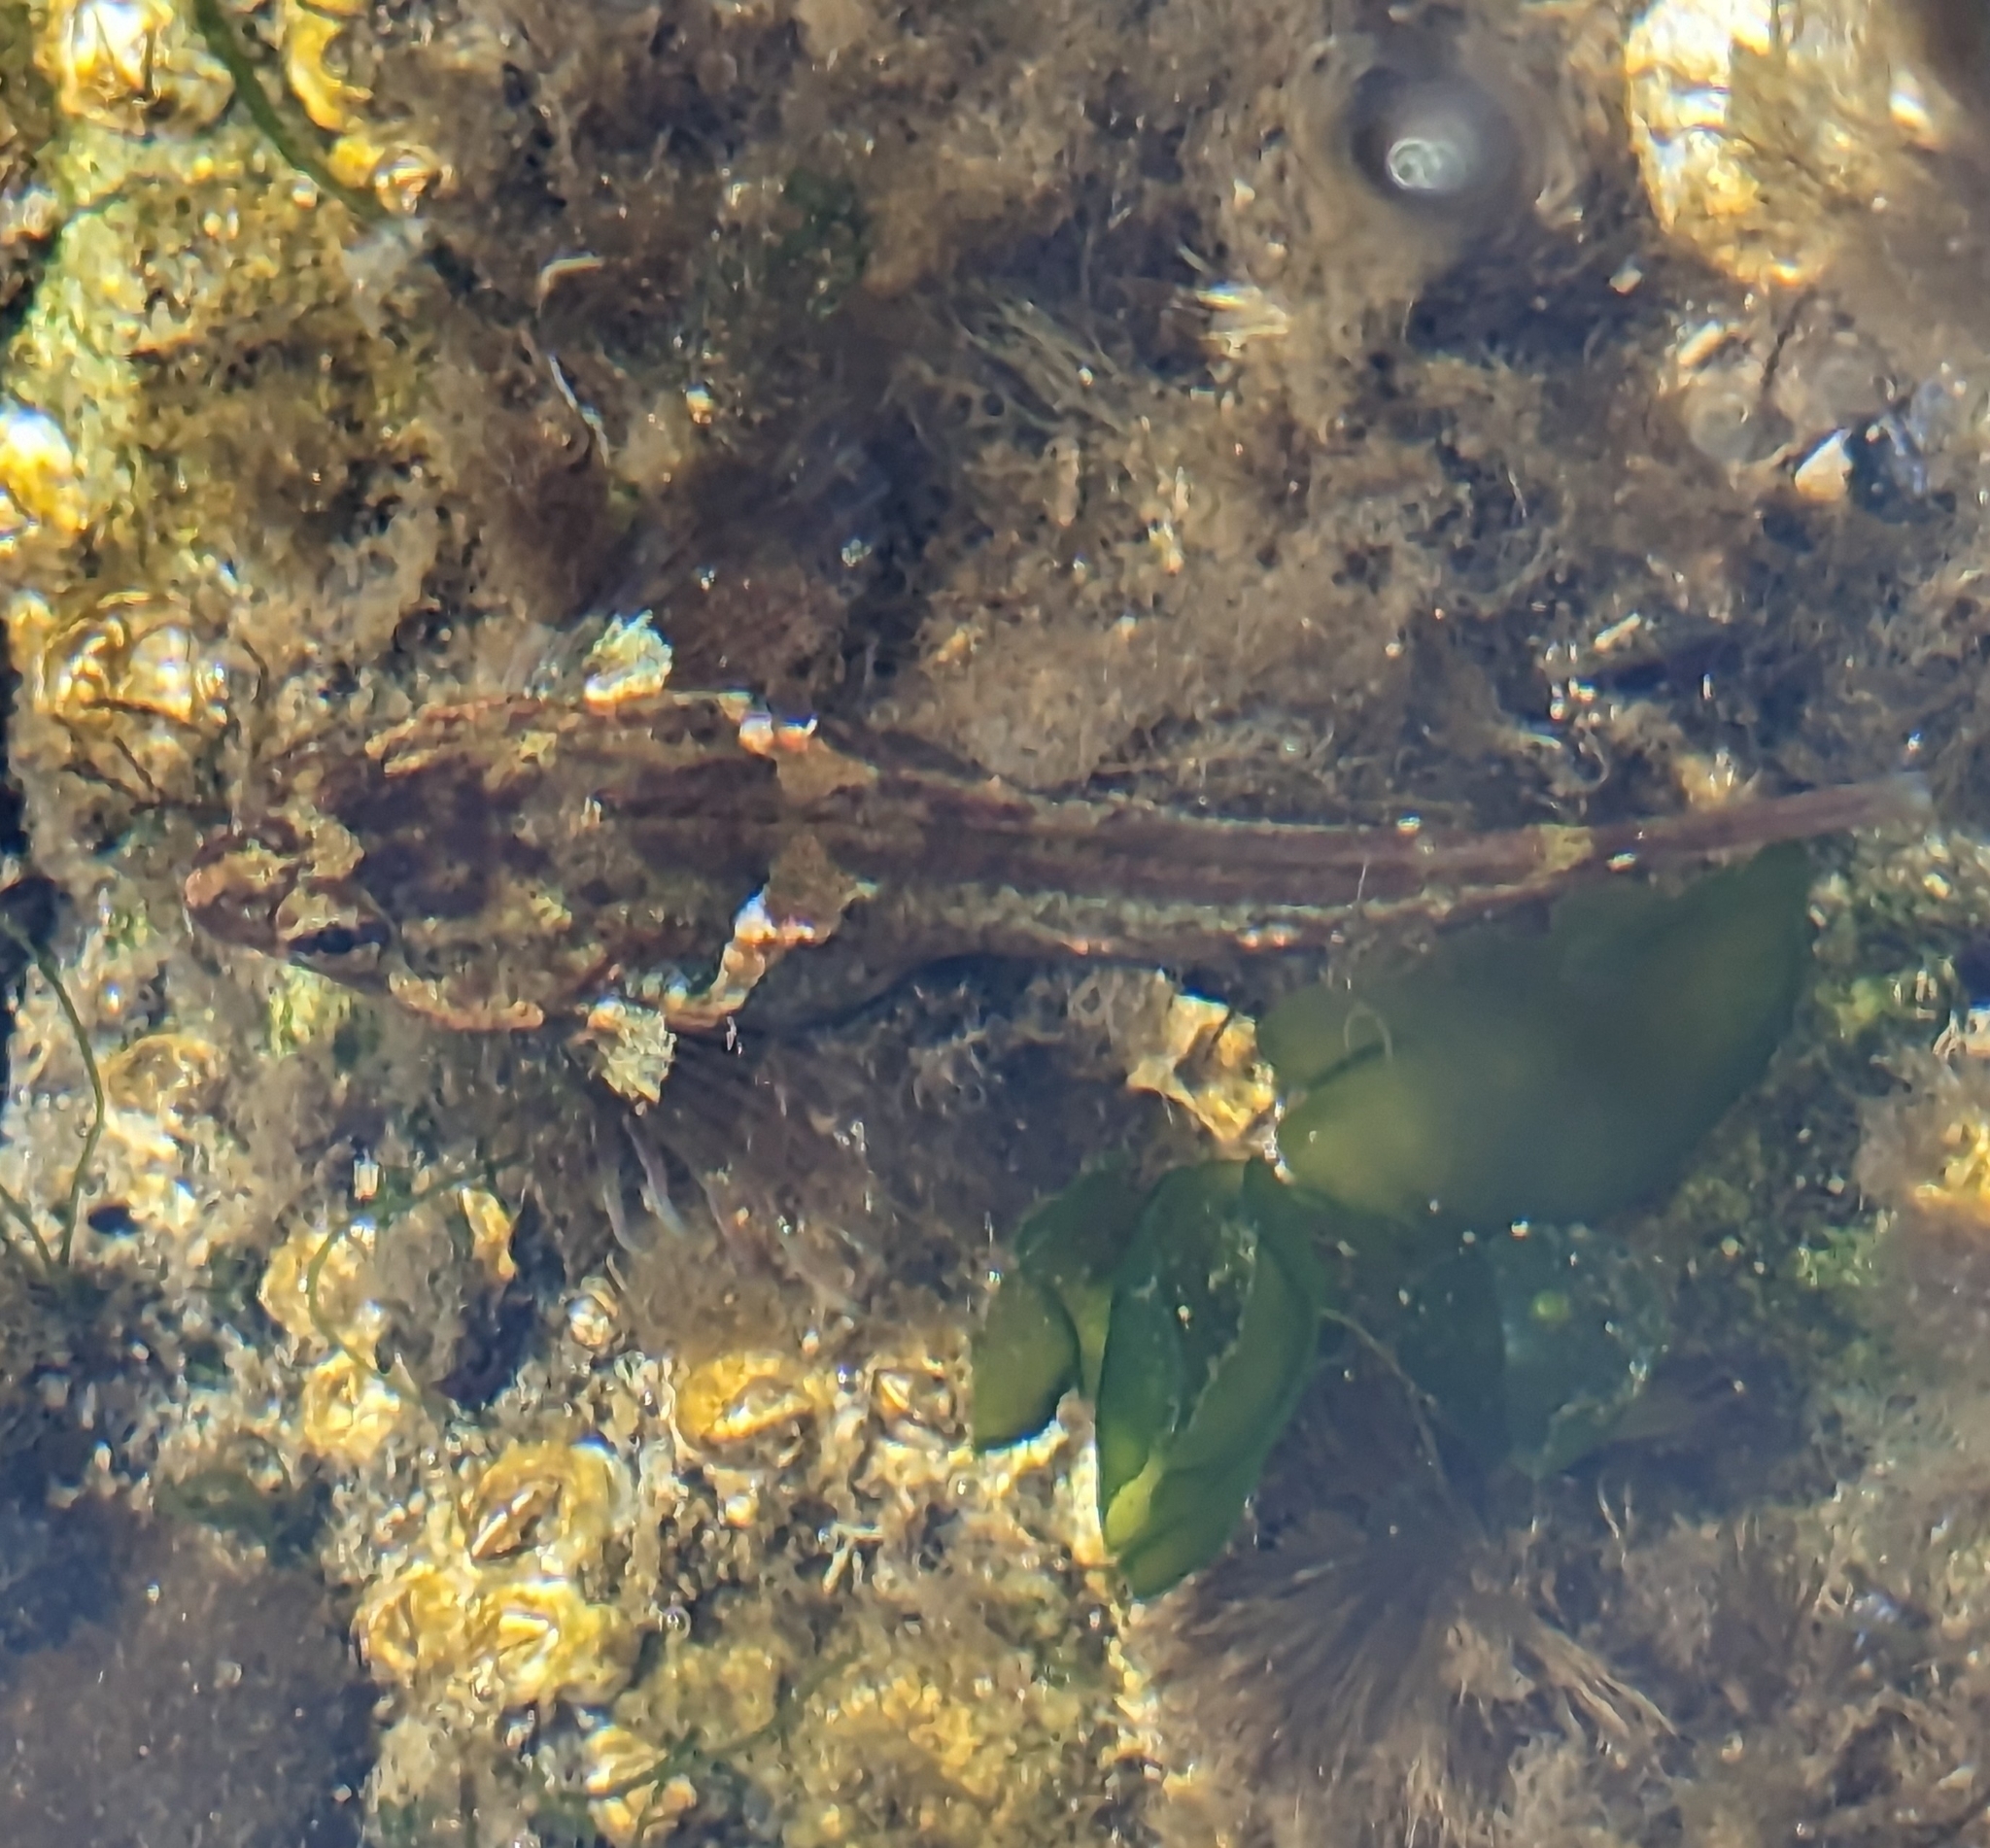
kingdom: Animalia
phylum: Chordata
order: Scorpaeniformes
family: Cottidae
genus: Oligocottus
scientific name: Oligocottus maculosus
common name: Tidepool sculpin
